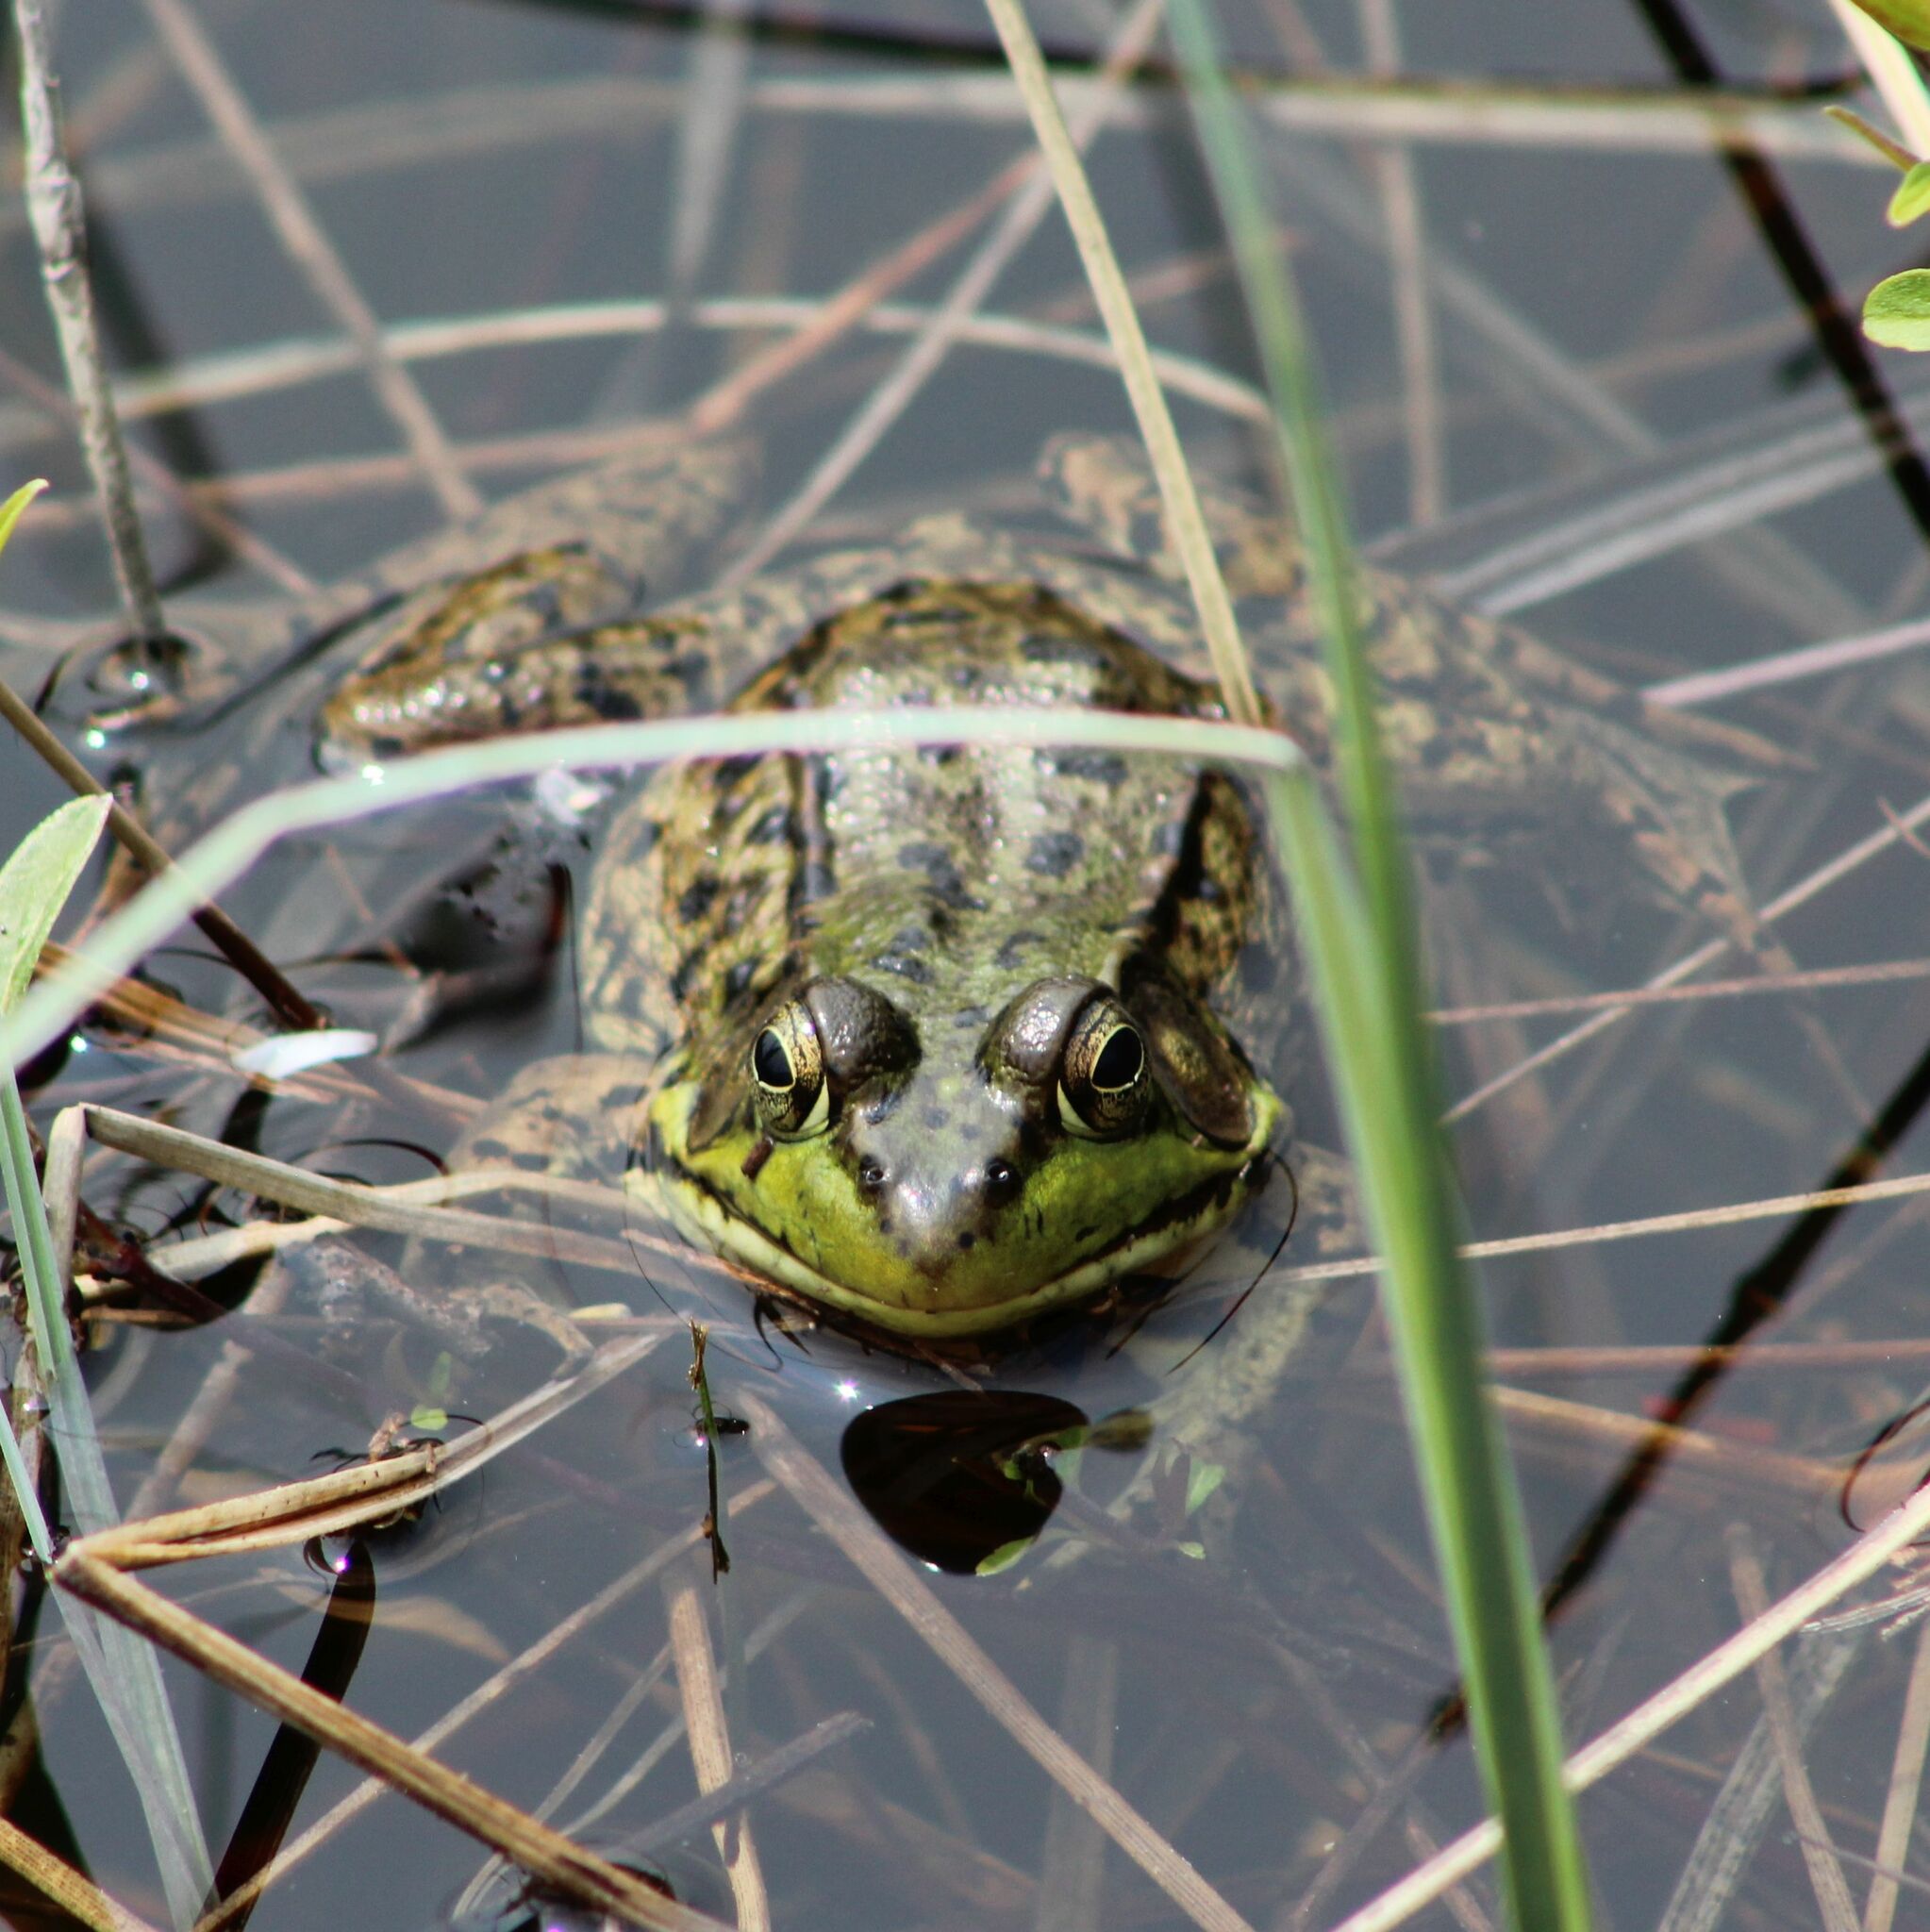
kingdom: Animalia
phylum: Chordata
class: Amphibia
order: Anura
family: Ranidae
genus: Lithobates
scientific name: Lithobates clamitans
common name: Green frog
